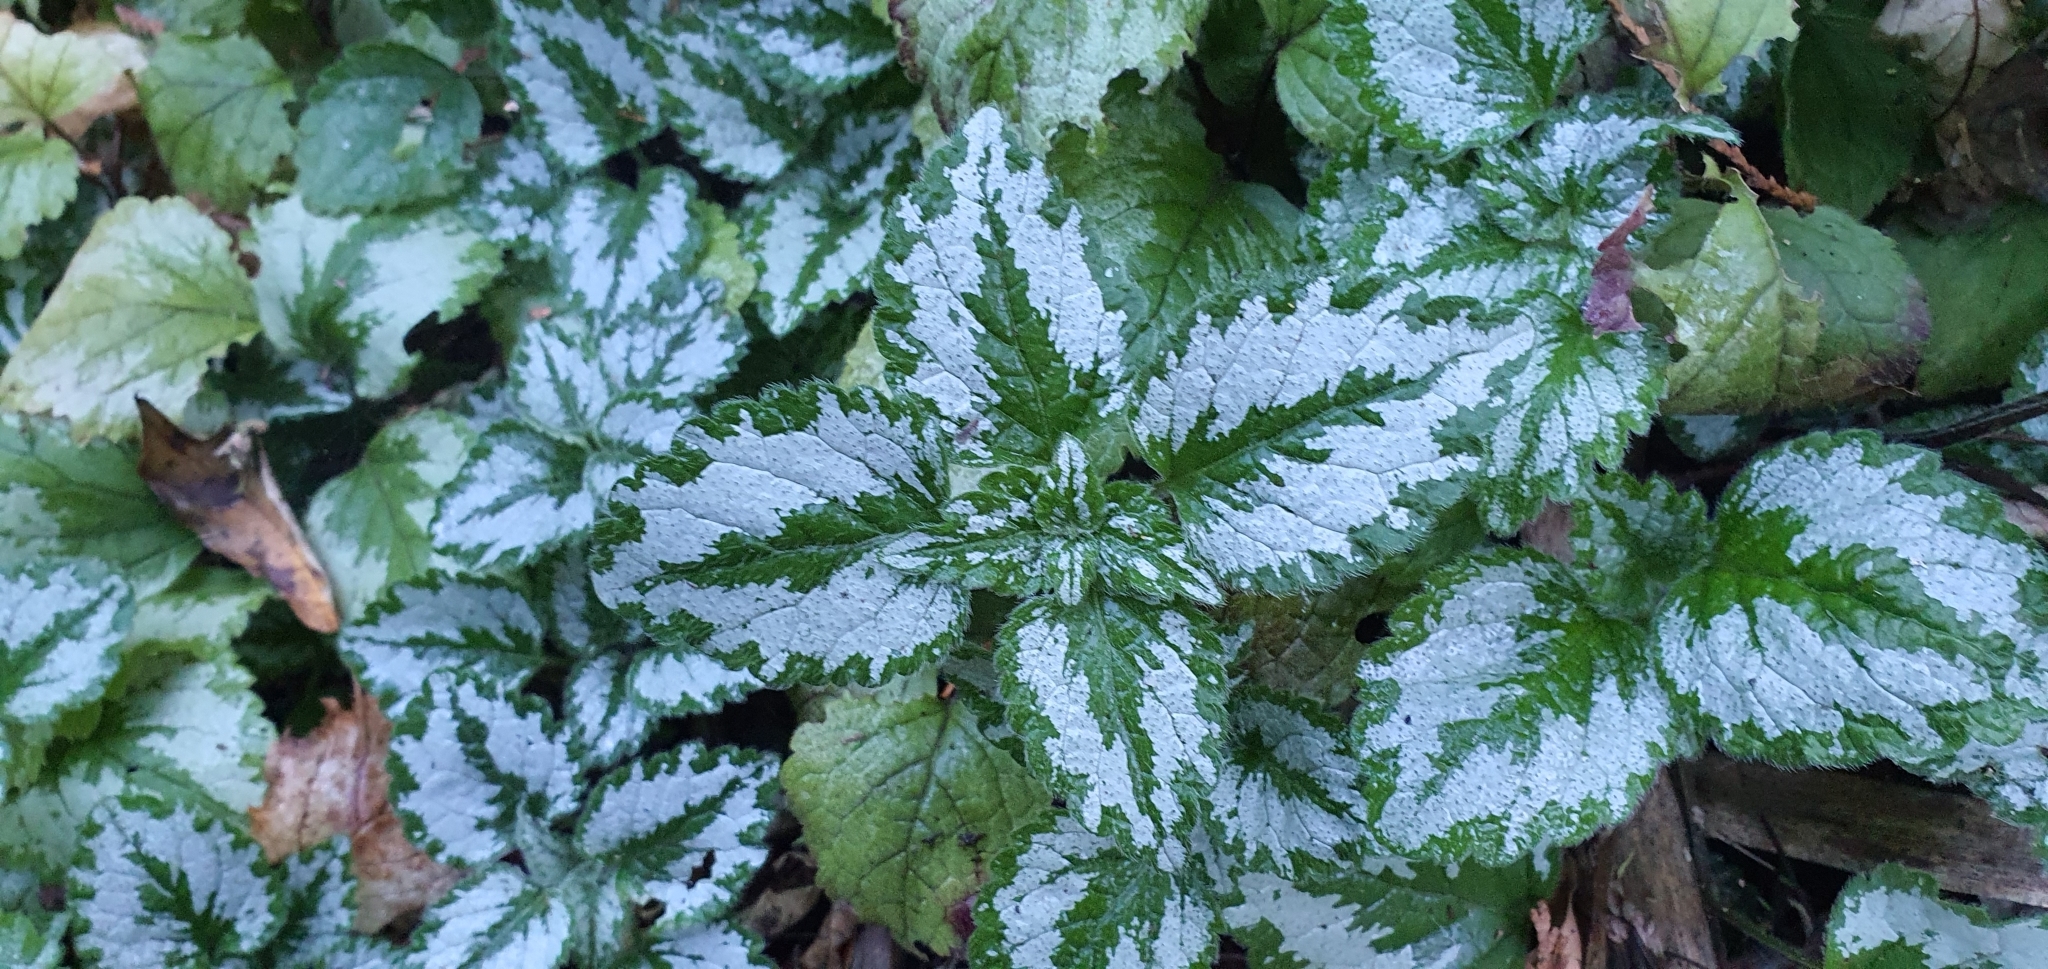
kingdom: Plantae
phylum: Tracheophyta
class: Magnoliopsida
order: Lamiales
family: Lamiaceae
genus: Lamium
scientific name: Lamium galeobdolon
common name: Yellow archangel
